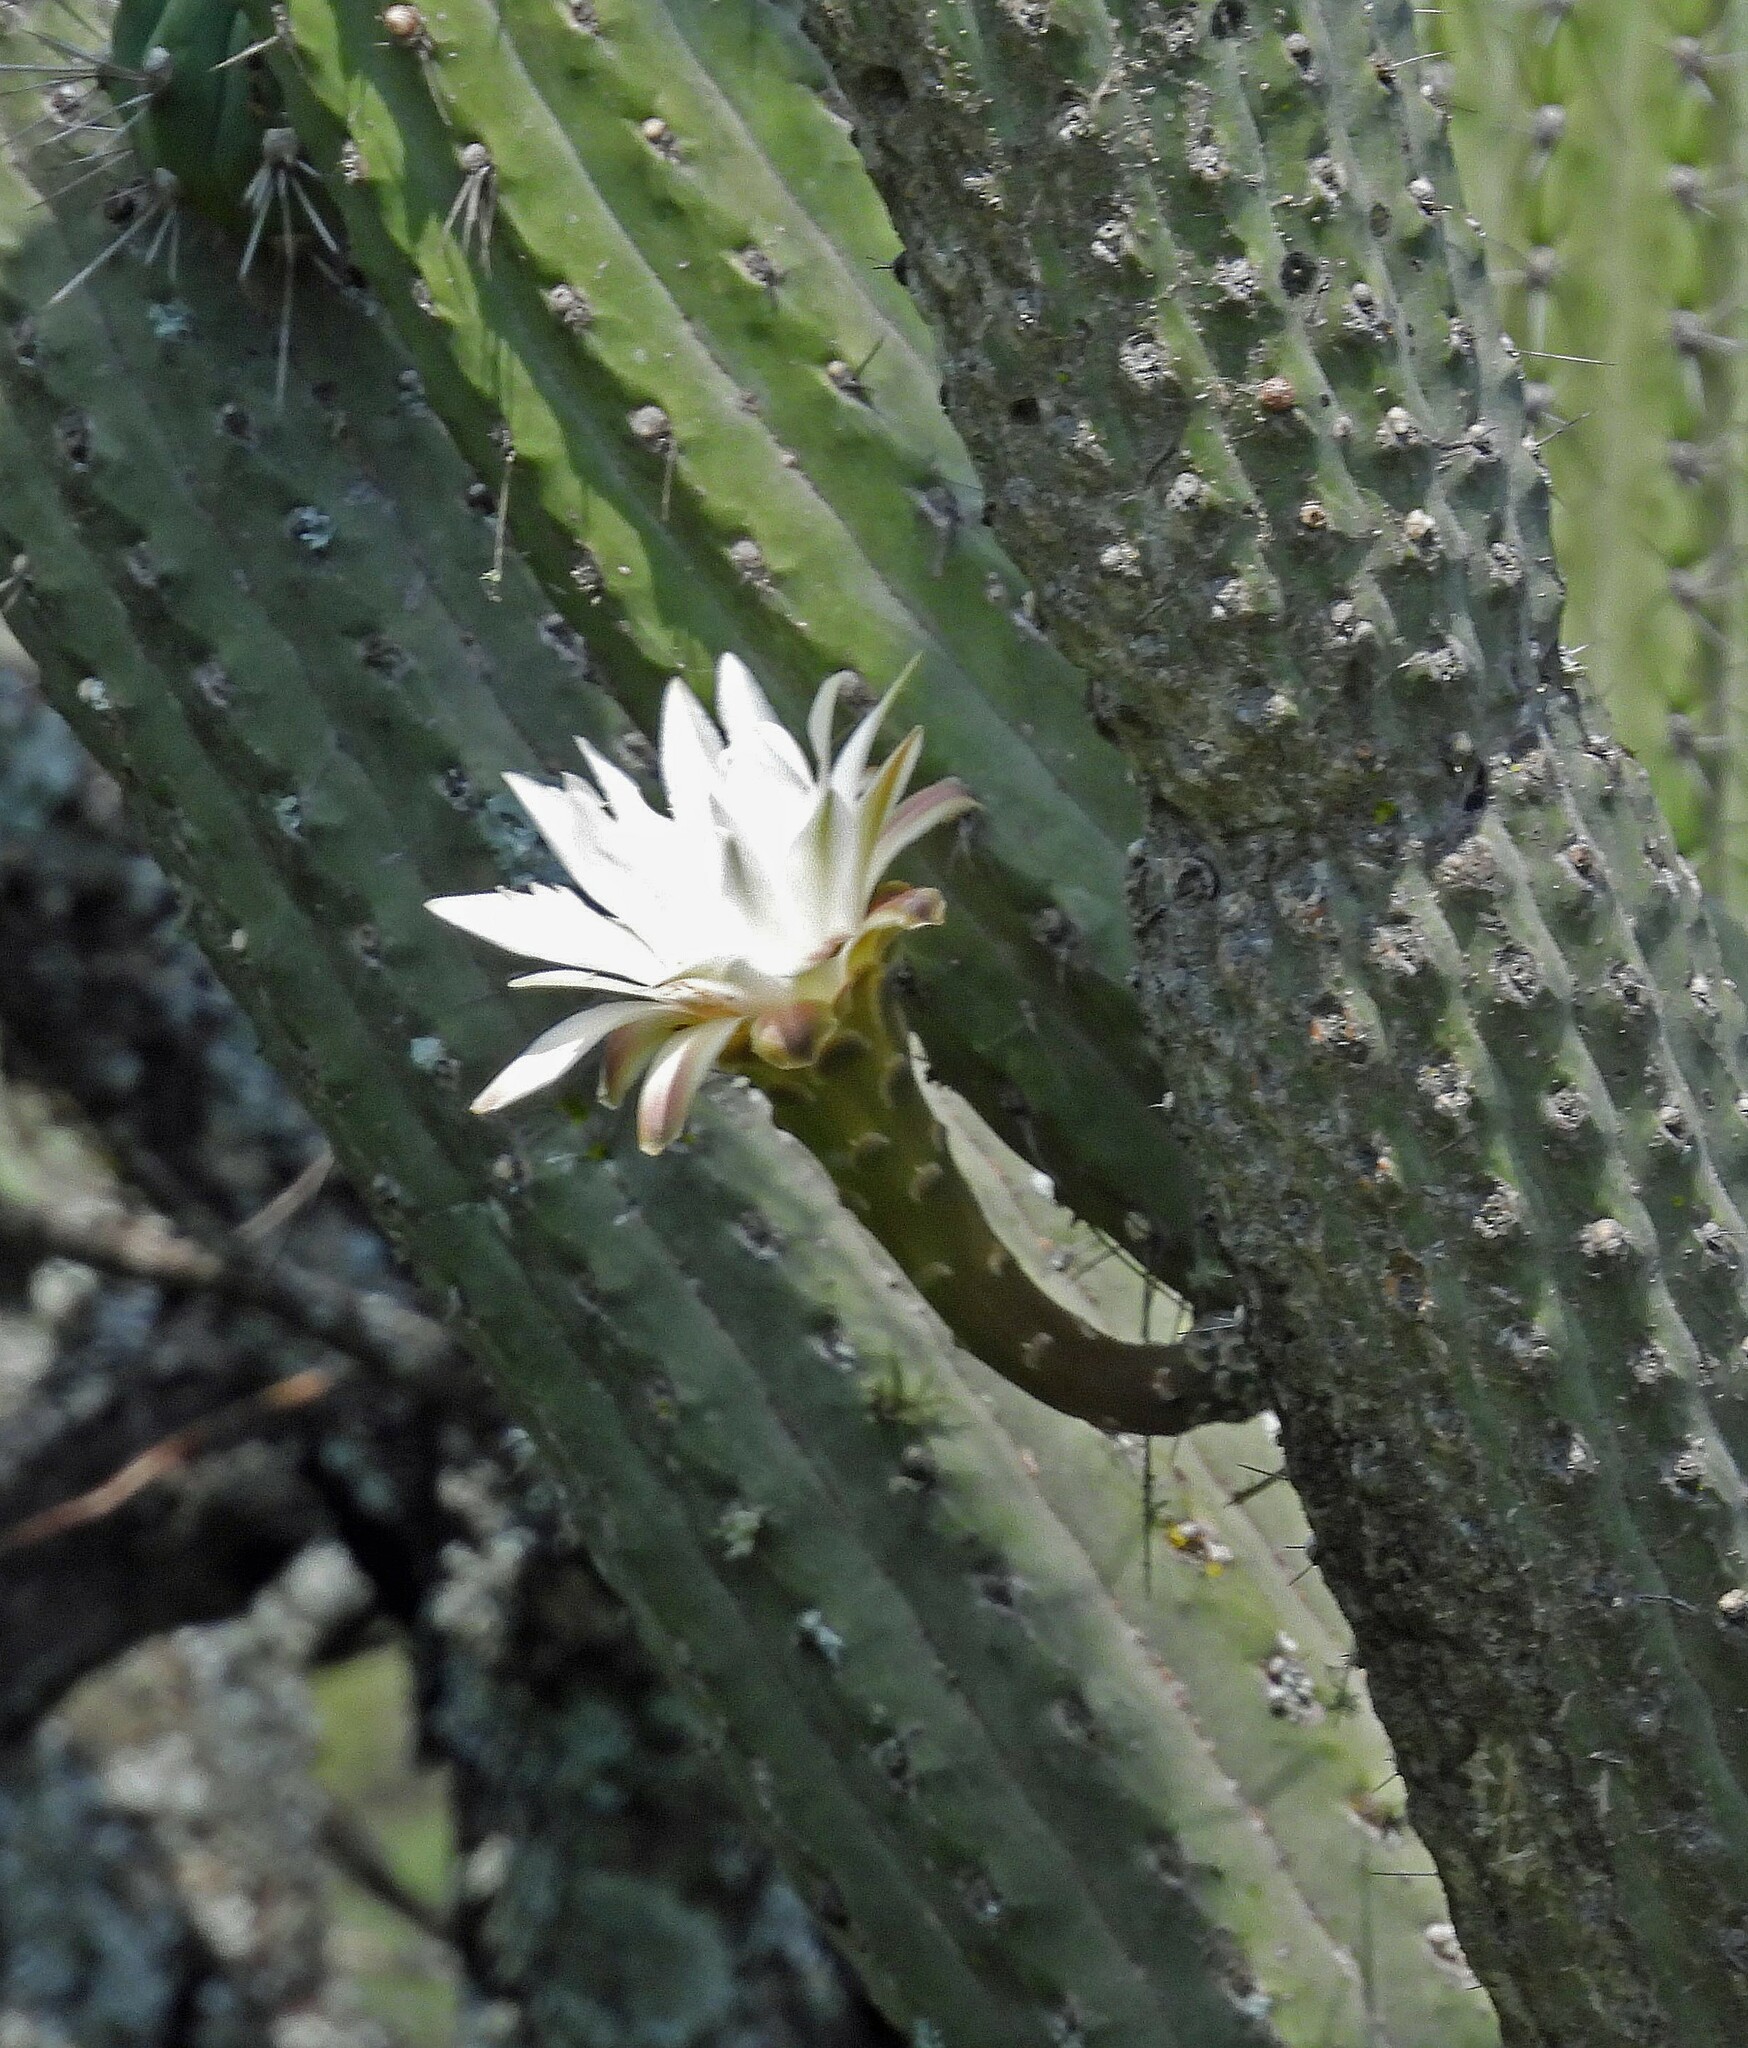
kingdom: Plantae
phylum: Tracheophyta
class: Magnoliopsida
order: Caryophyllales
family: Cactaceae
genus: Stetsonia
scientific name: Stetsonia coryne
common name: Toothpick cactus
